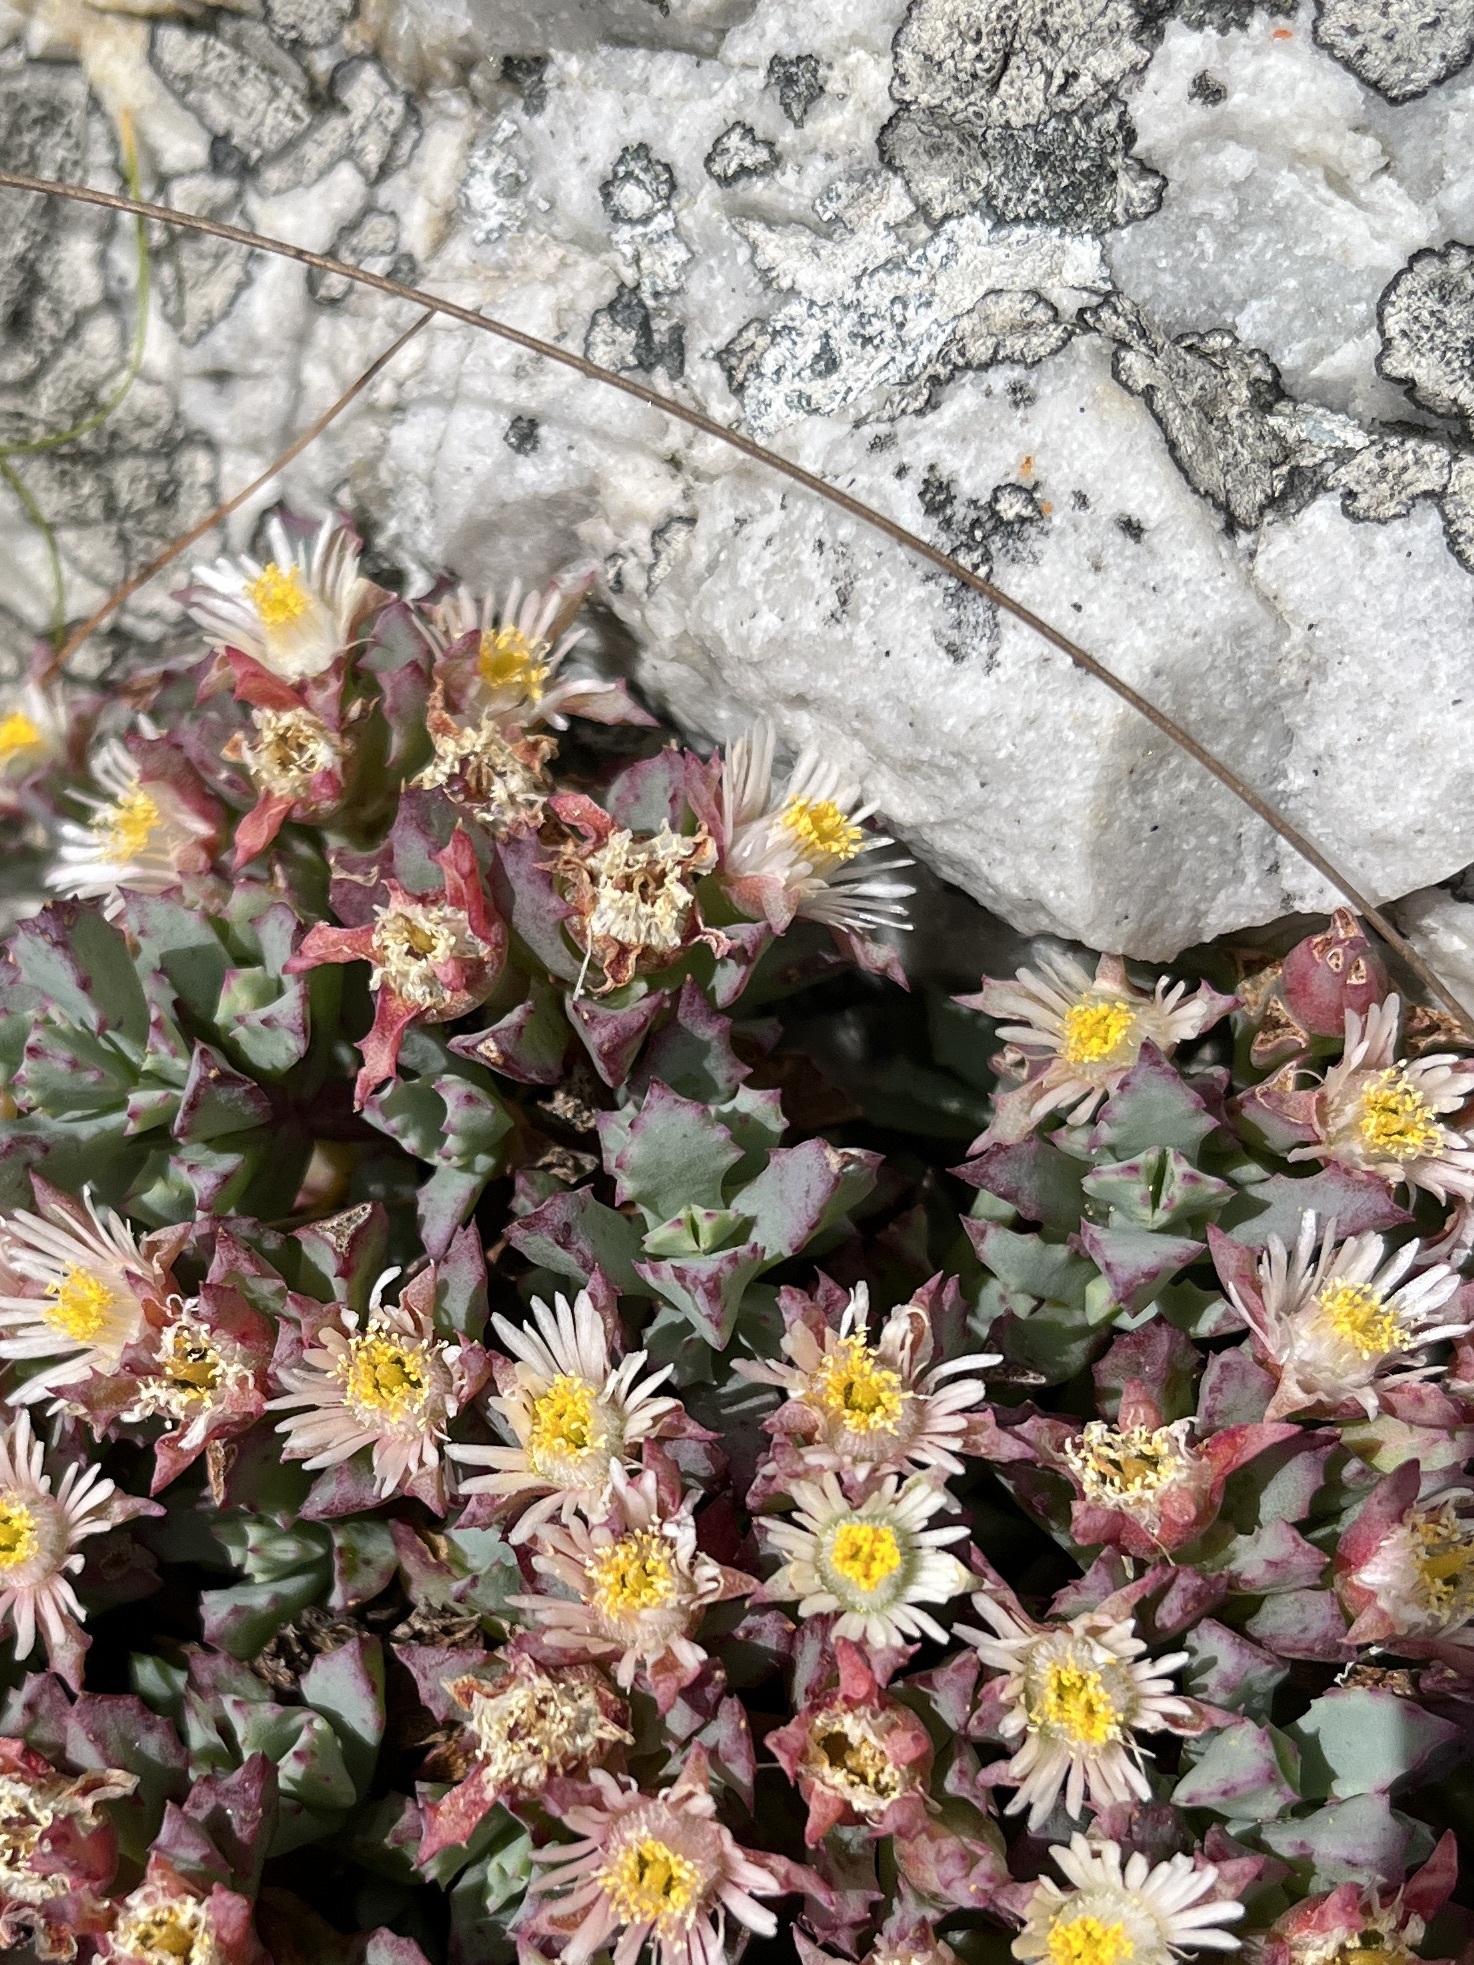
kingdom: Plantae
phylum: Tracheophyta
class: Magnoliopsida
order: Caryophyllales
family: Aizoaceae
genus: Oscularia
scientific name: Oscularia deltoides
